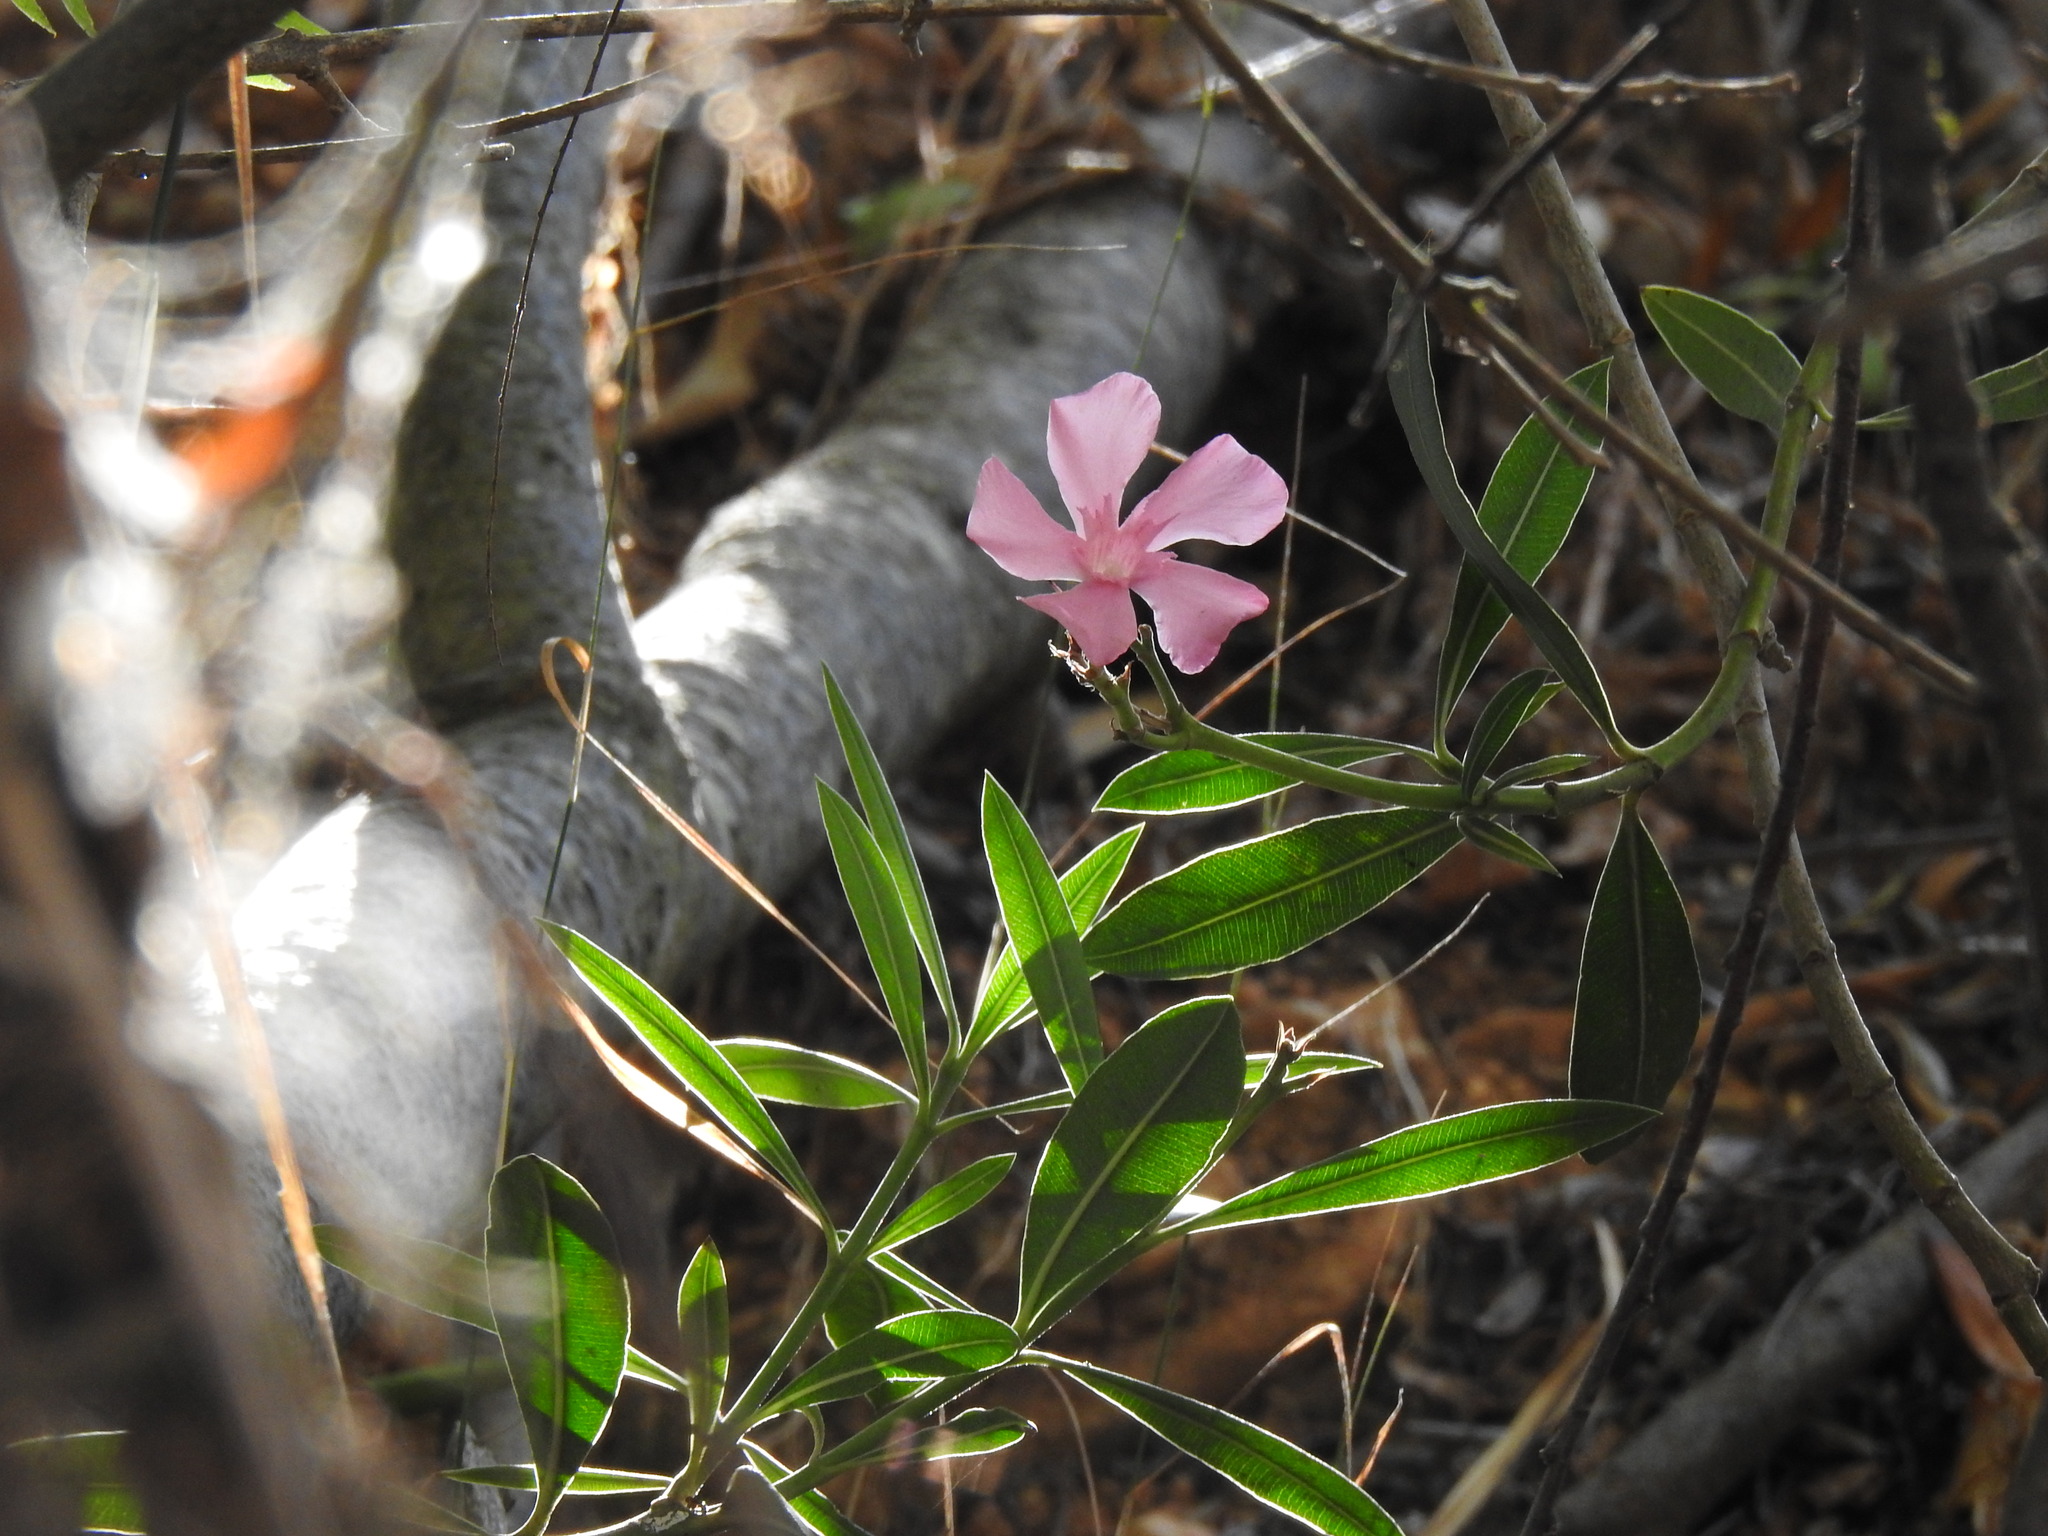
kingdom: Plantae
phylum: Tracheophyta
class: Magnoliopsida
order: Gentianales
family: Apocynaceae
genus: Nerium
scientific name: Nerium oleander
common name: Oleander
